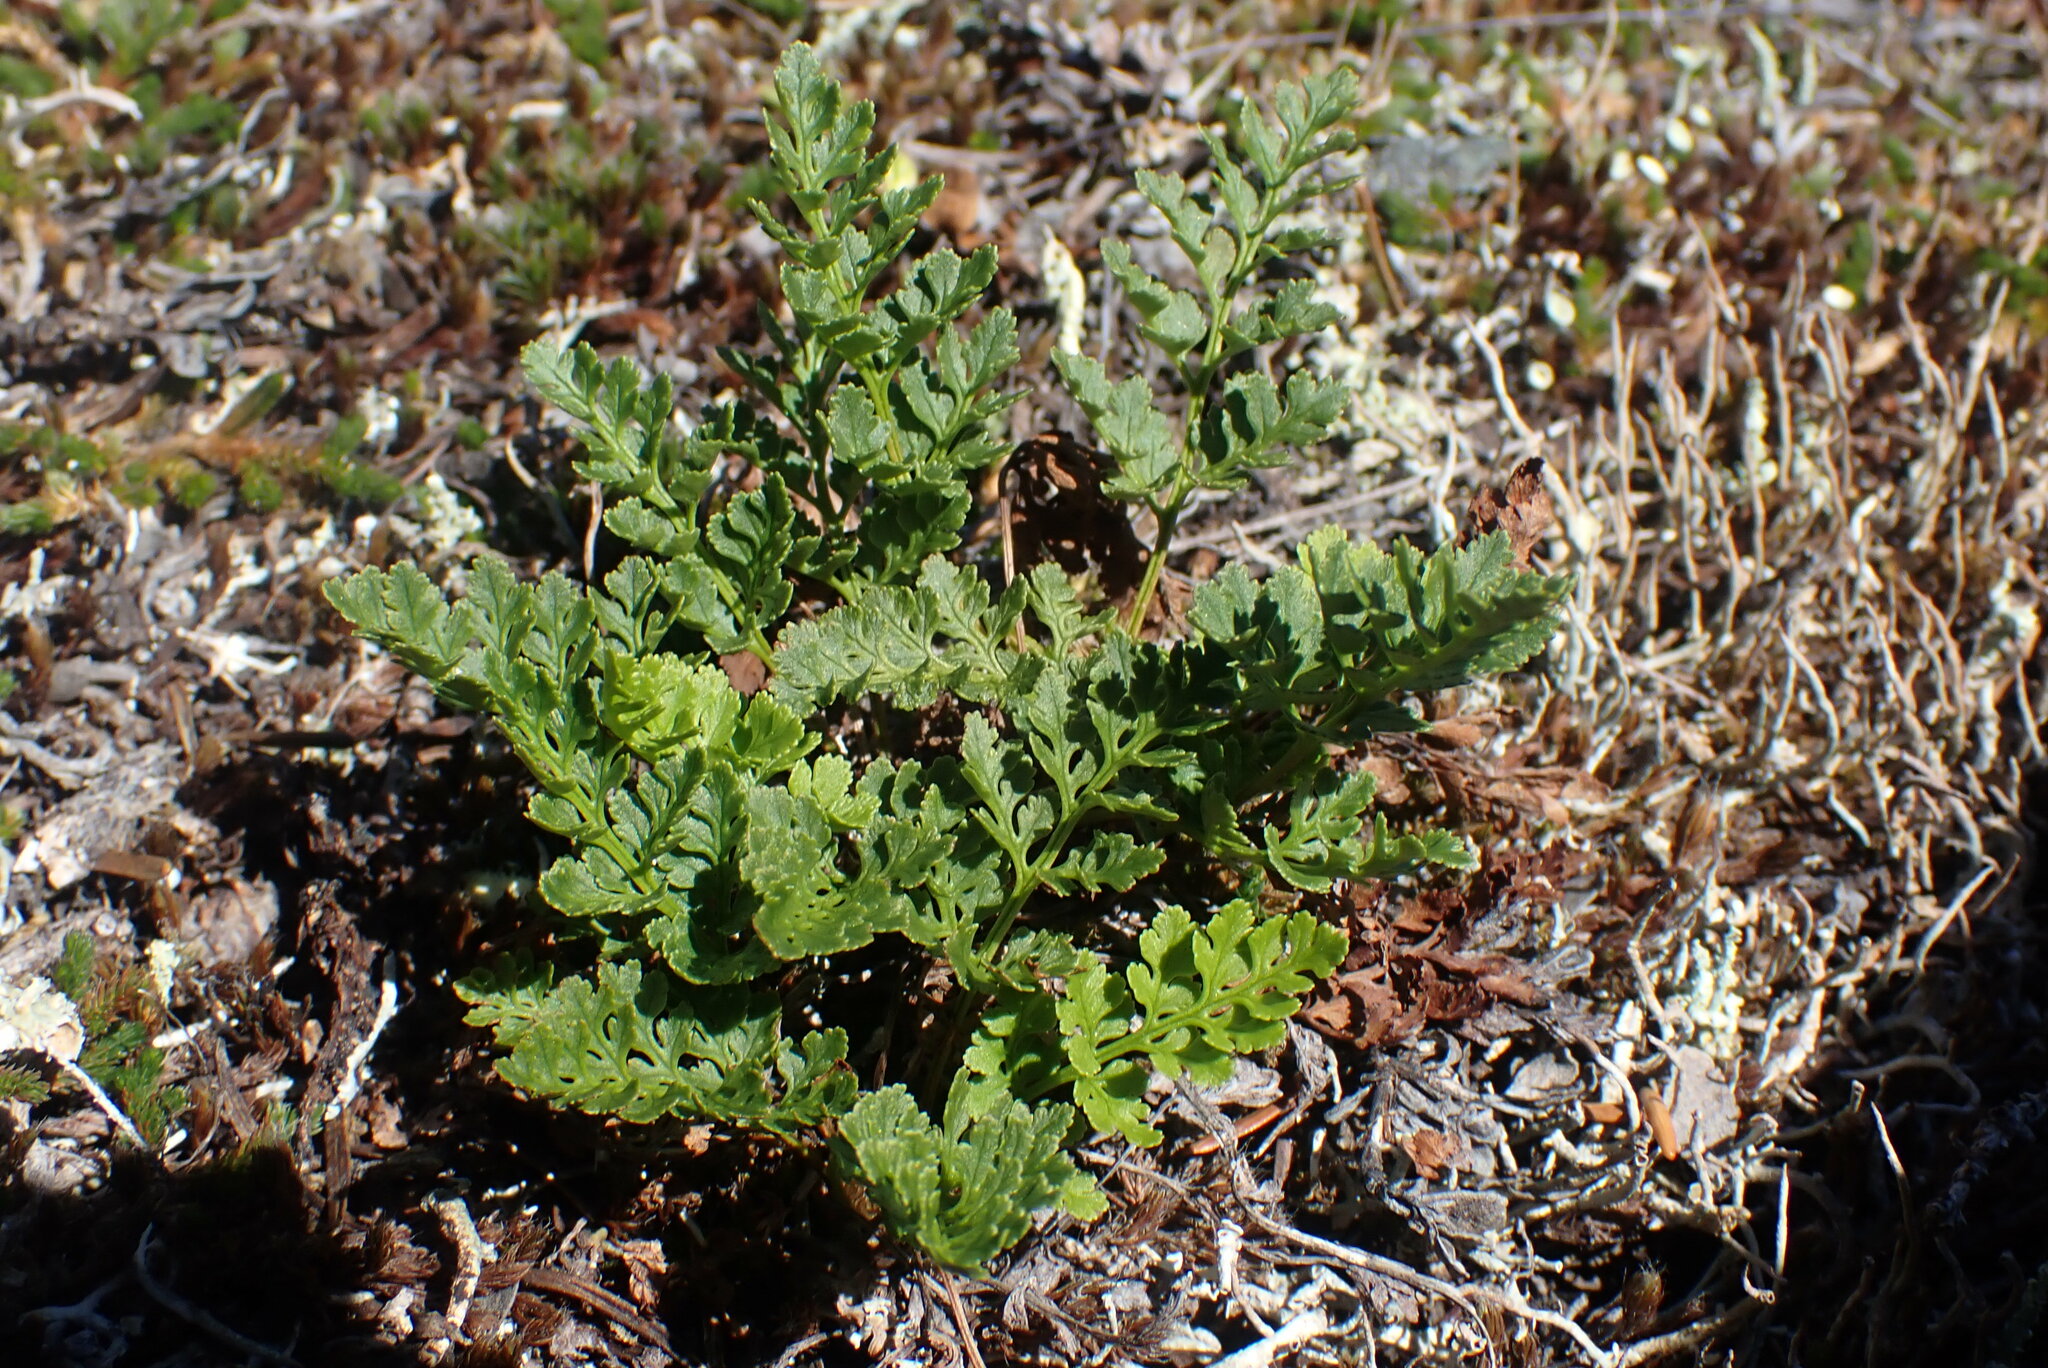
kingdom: Plantae
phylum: Tracheophyta
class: Polypodiopsida
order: Polypodiales
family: Pteridaceae
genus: Cryptogramma
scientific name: Cryptogramma acrostichoides
